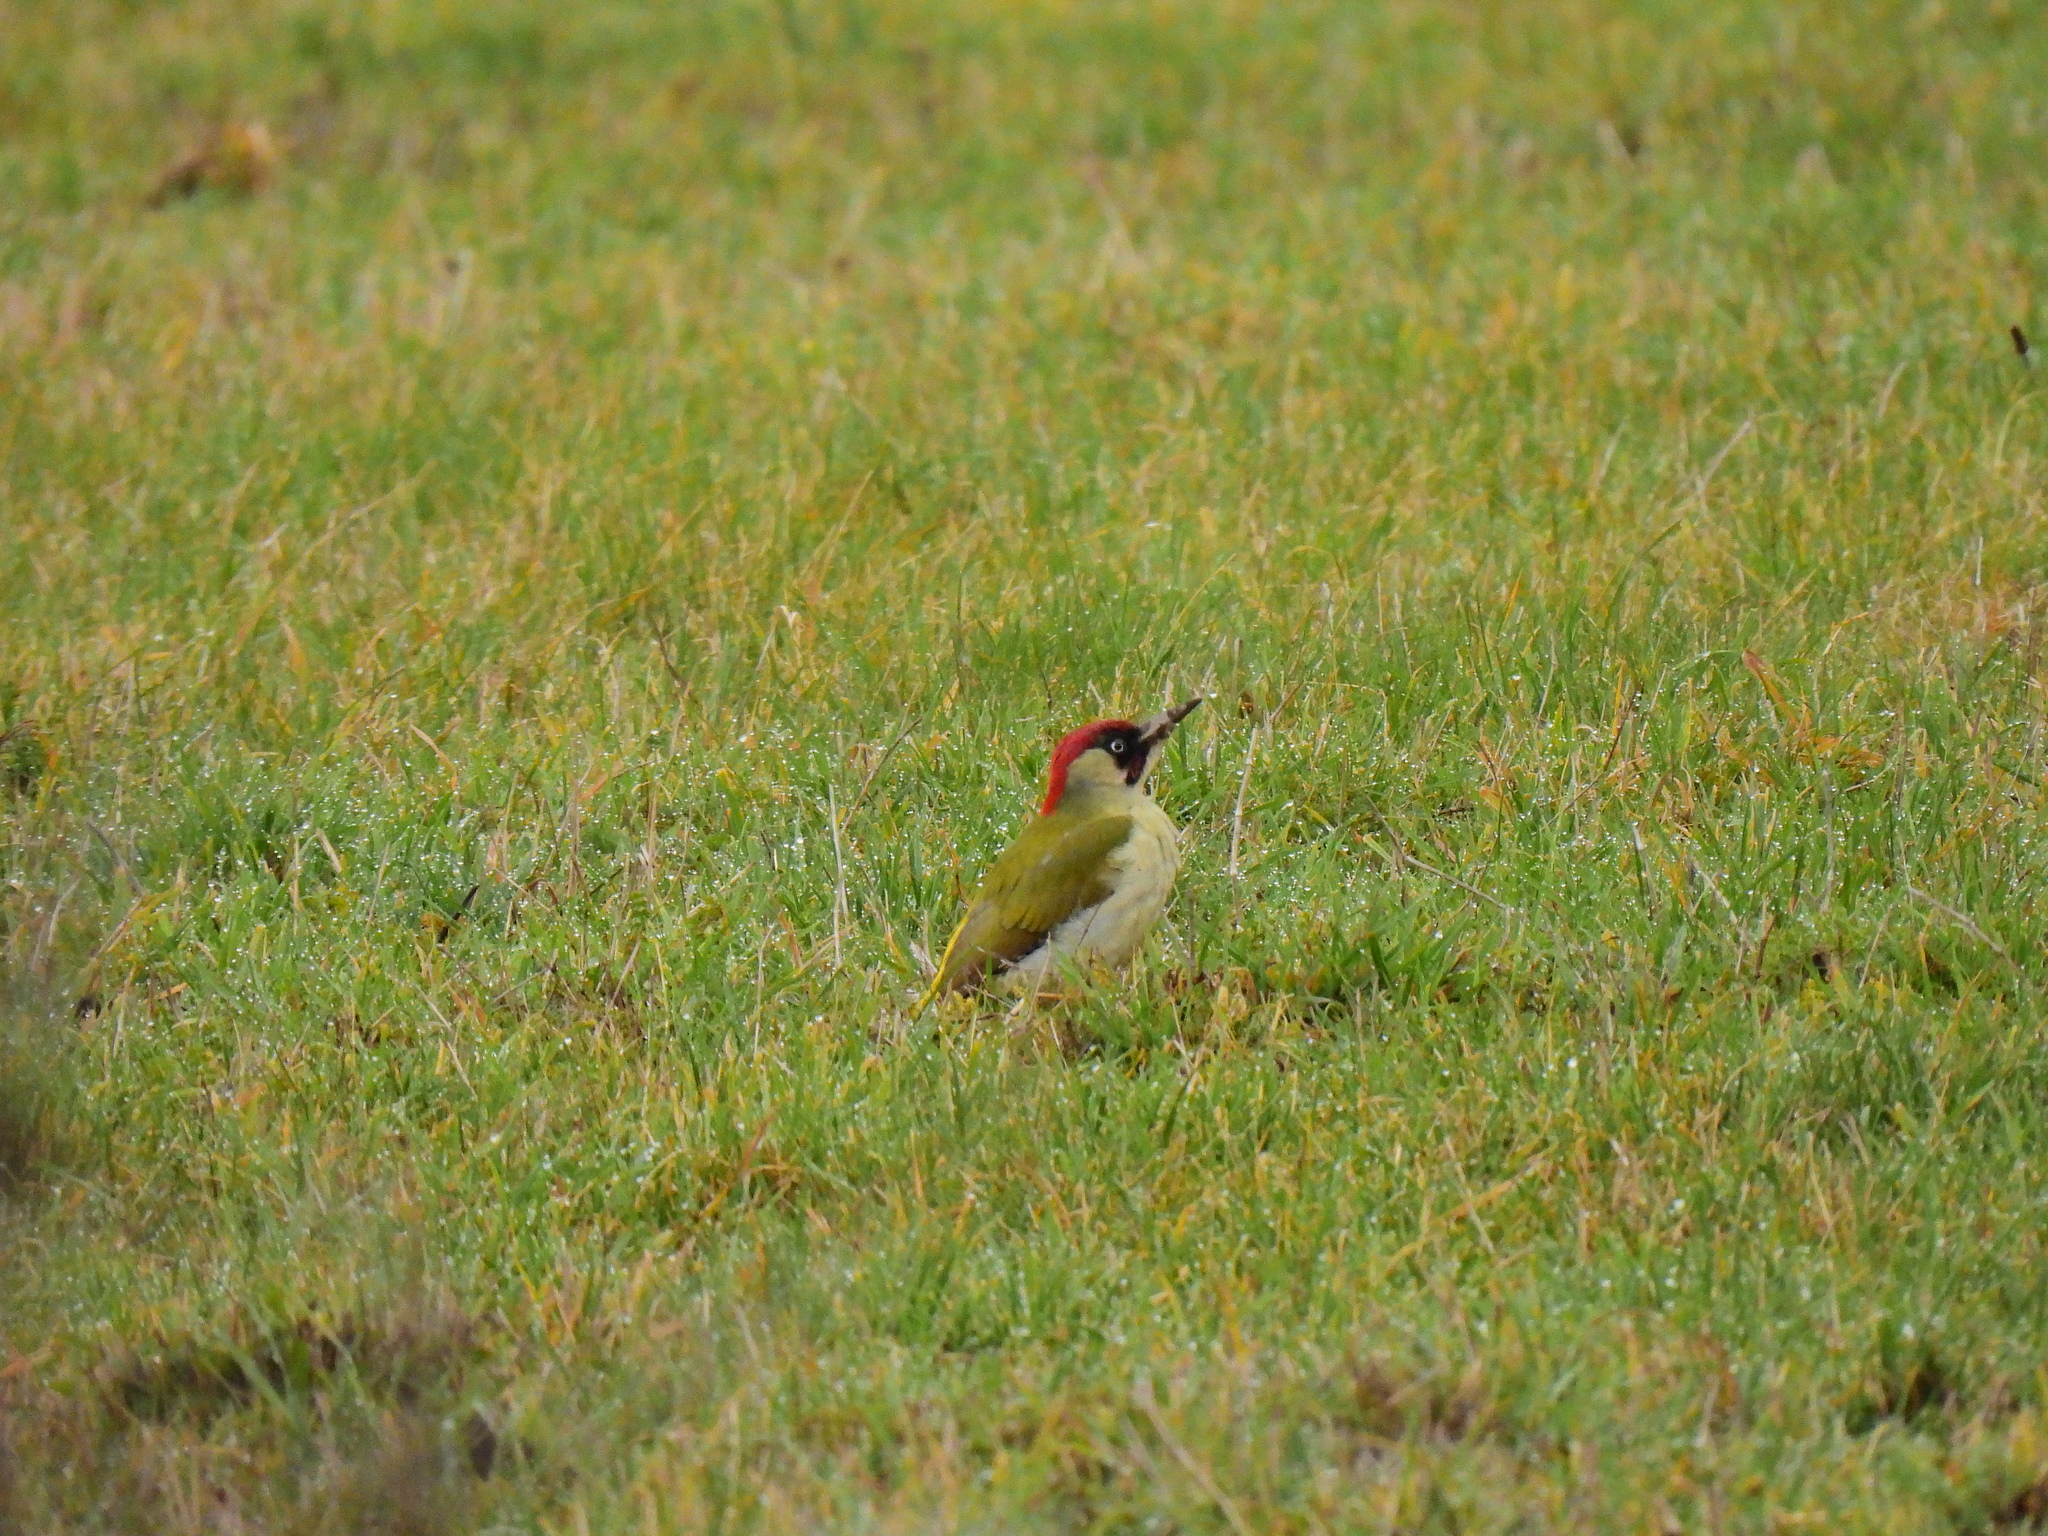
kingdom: Animalia
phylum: Chordata
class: Aves
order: Piciformes
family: Picidae
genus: Picus
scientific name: Picus viridis
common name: European green woodpecker
